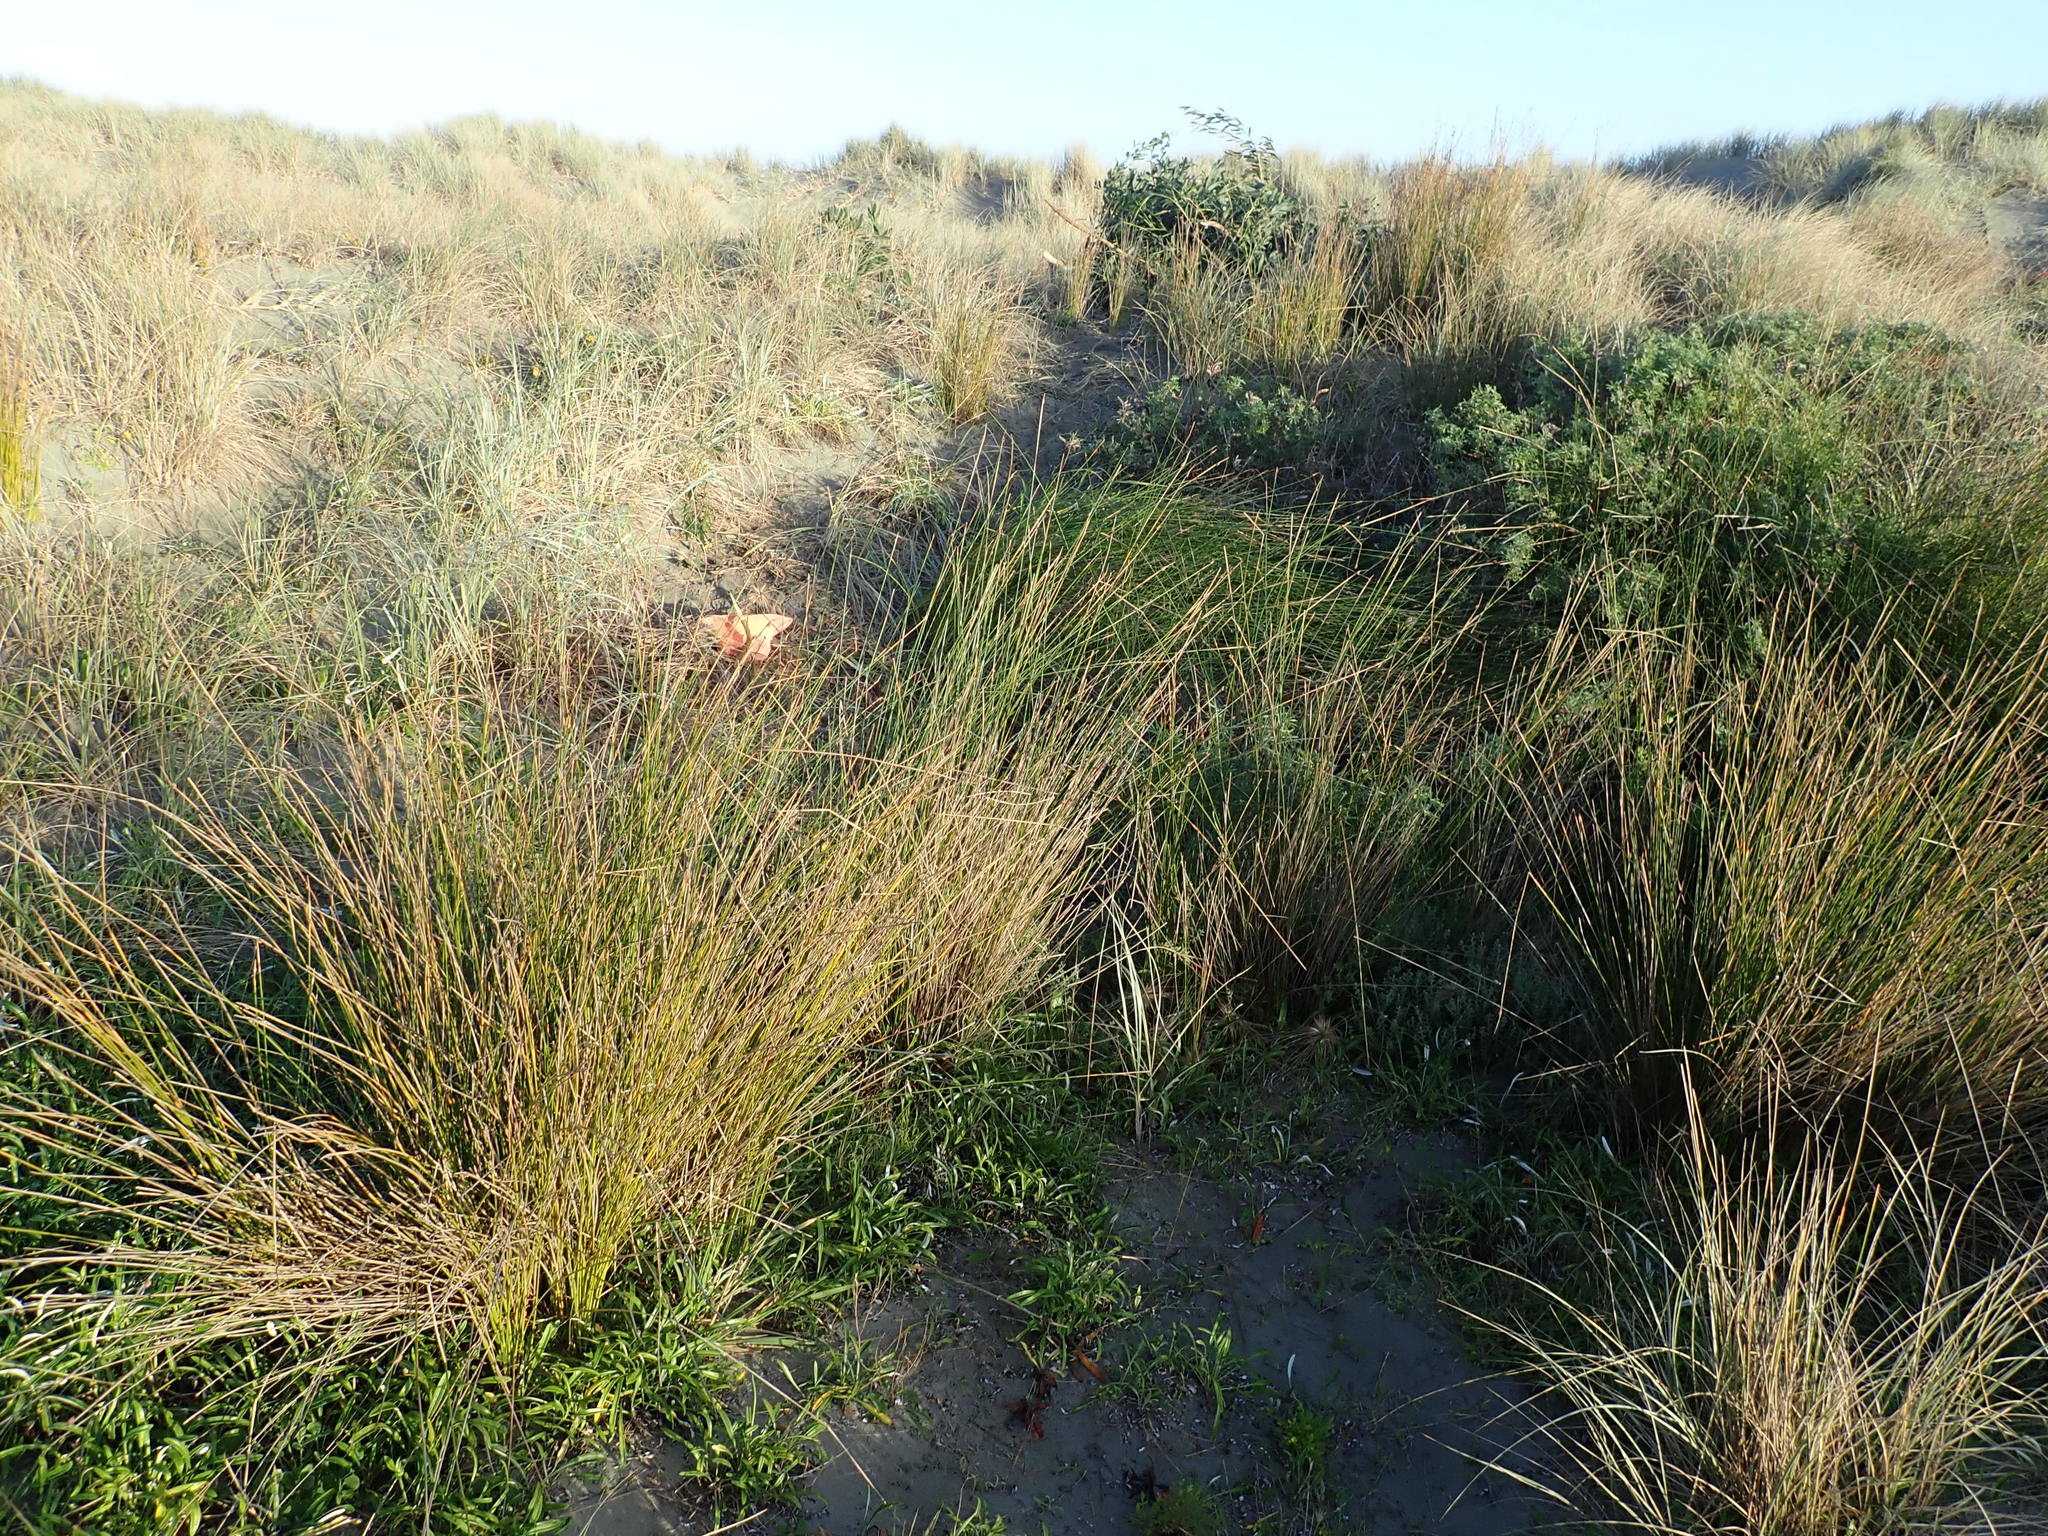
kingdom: Plantae
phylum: Tracheophyta
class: Magnoliopsida
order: Fabales
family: Fabaceae
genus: Acacia
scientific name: Acacia longifolia
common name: Sydney golden wattle
